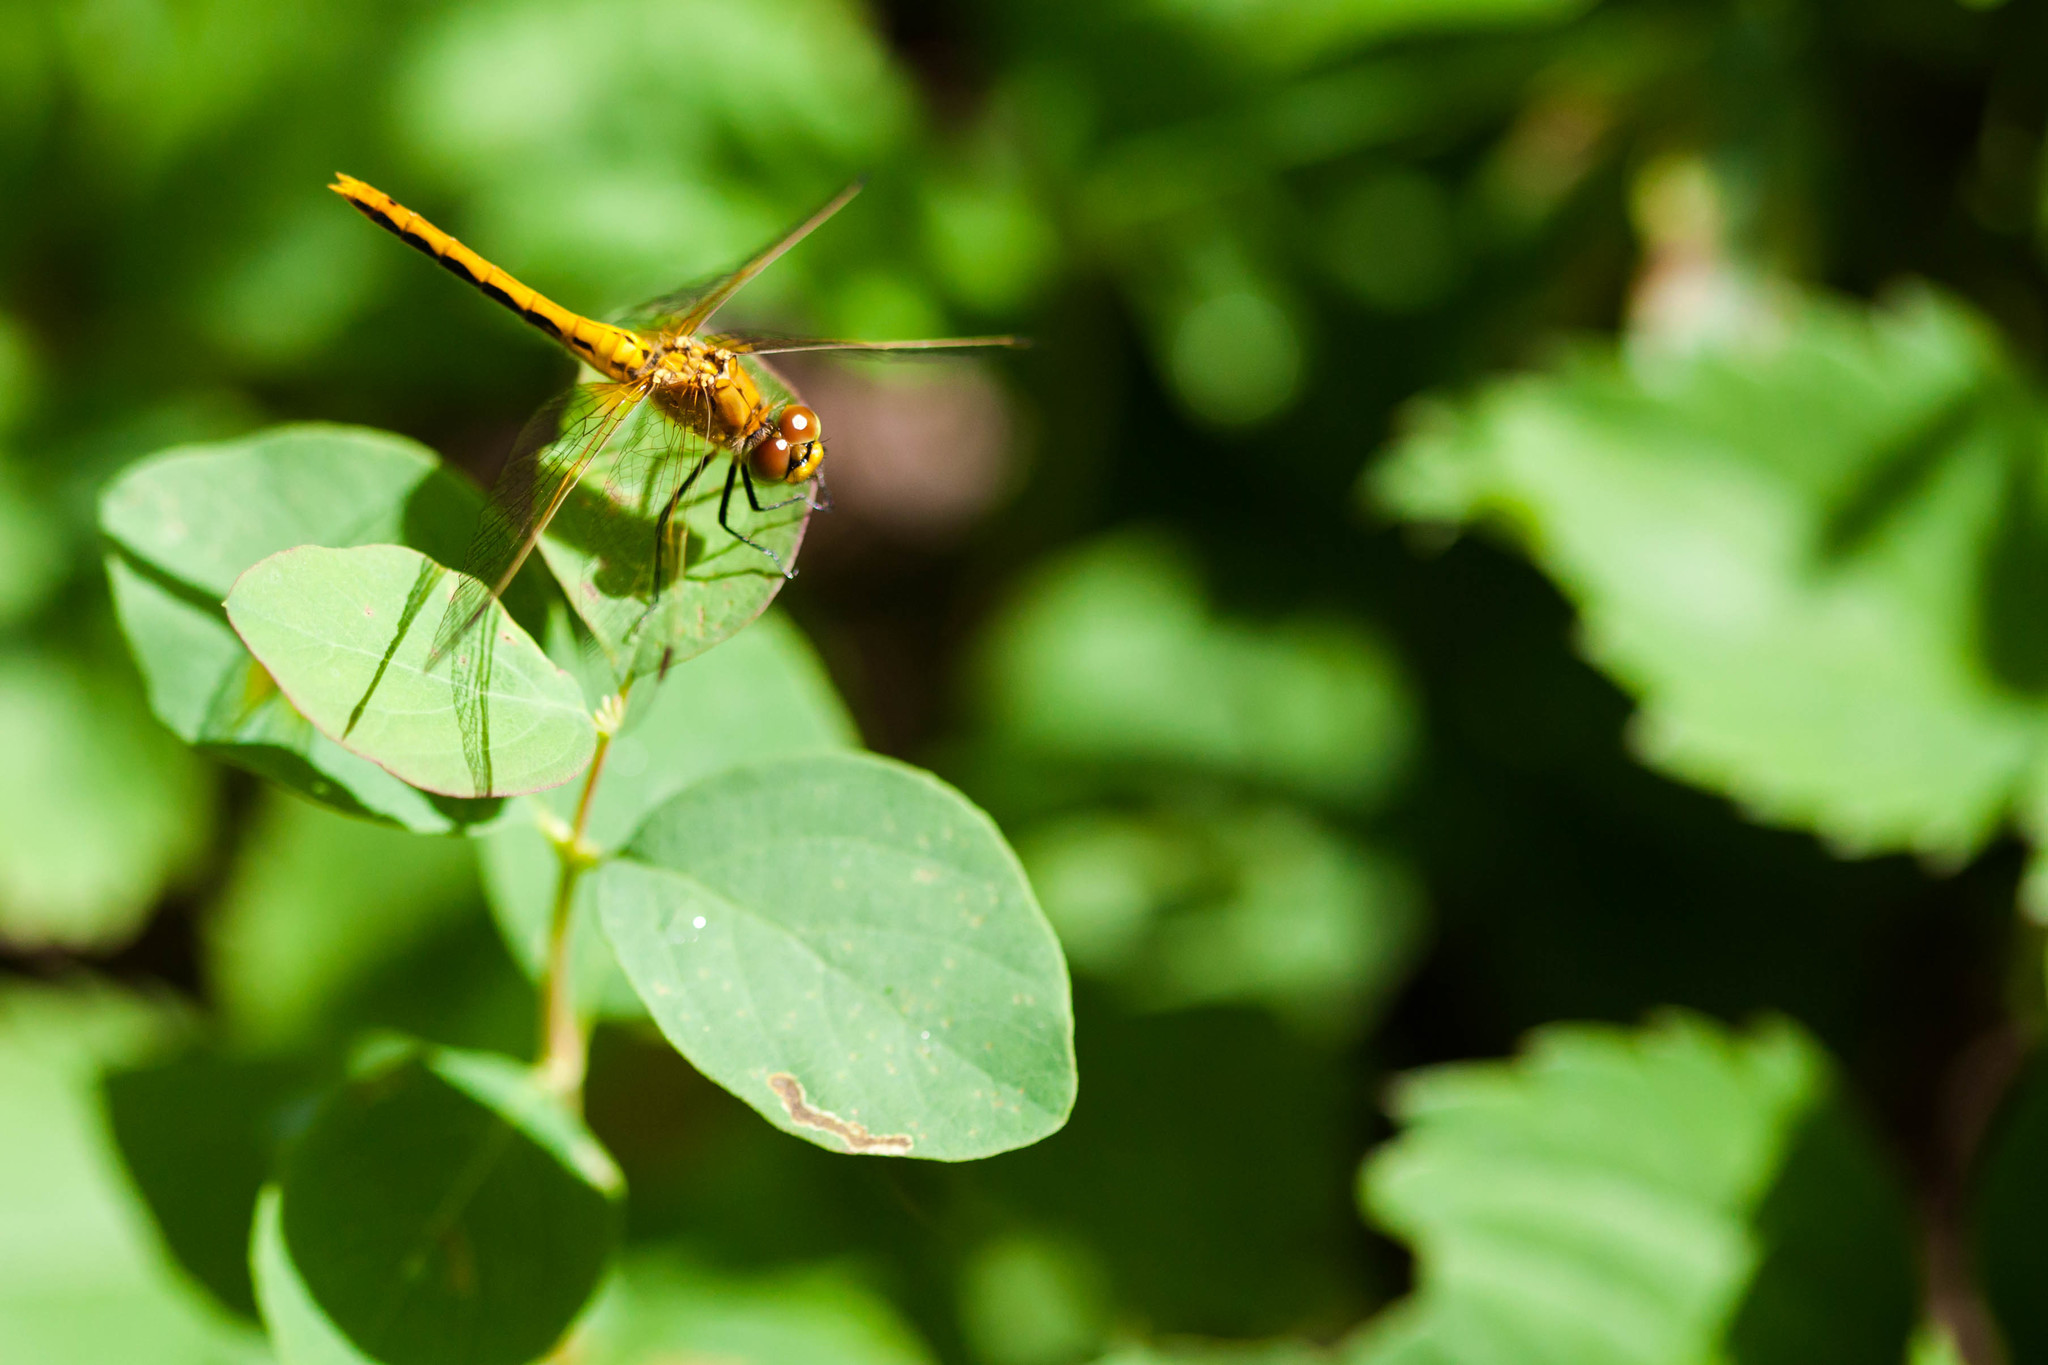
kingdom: Animalia
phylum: Arthropoda
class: Insecta
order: Odonata
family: Libellulidae
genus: Sympetrum
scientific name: Sympetrum internum
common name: Cherry-faced meadowhawk
